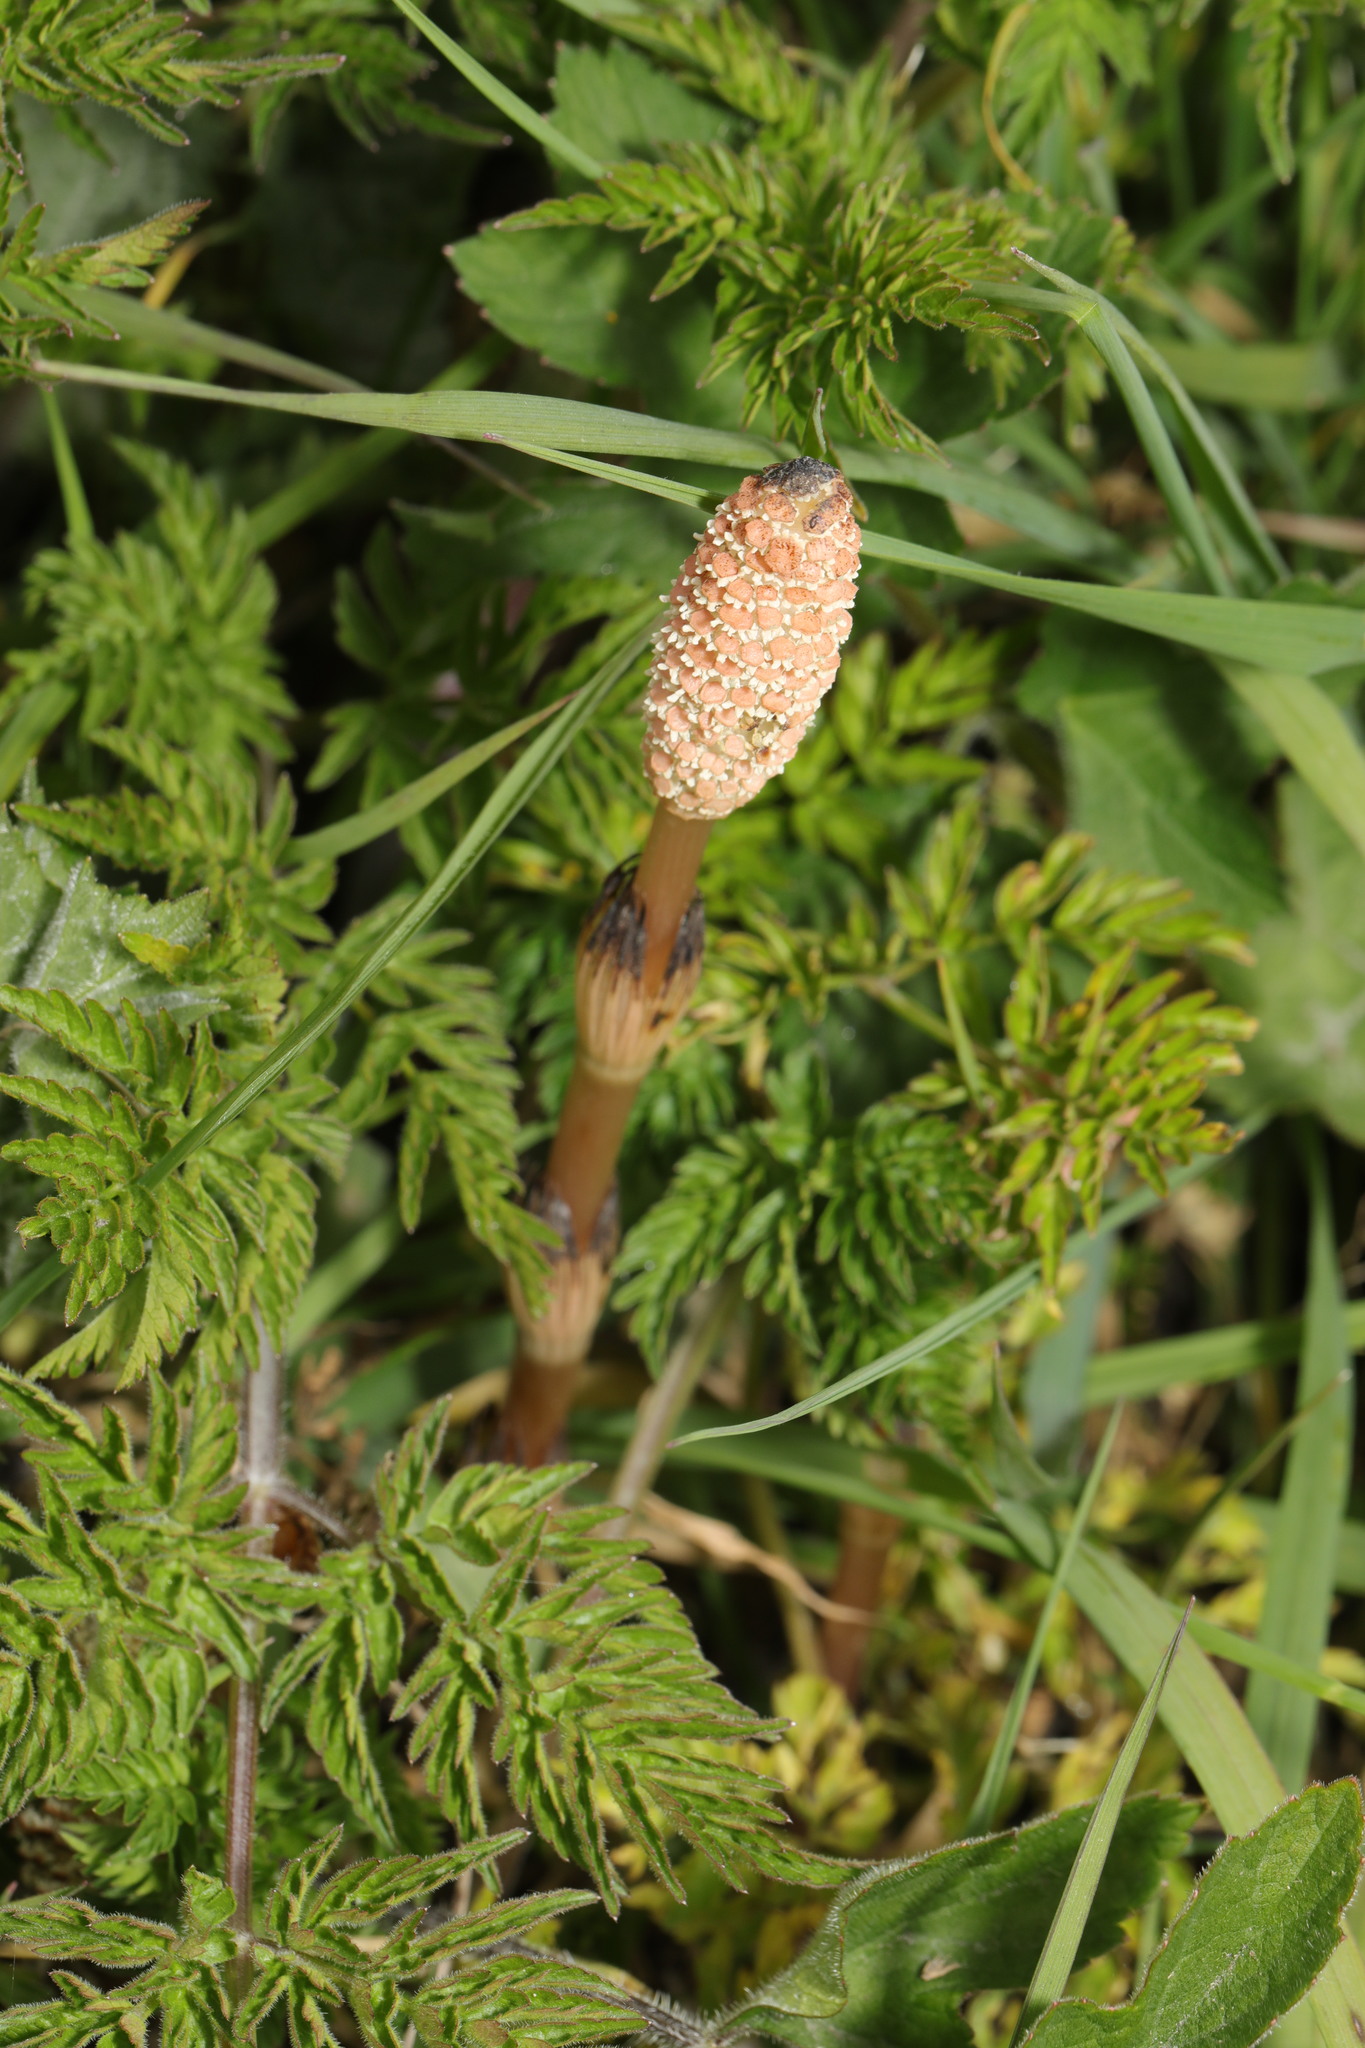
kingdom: Plantae
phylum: Tracheophyta
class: Polypodiopsida
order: Equisetales
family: Equisetaceae
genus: Equisetum
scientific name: Equisetum arvense
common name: Field horsetail
